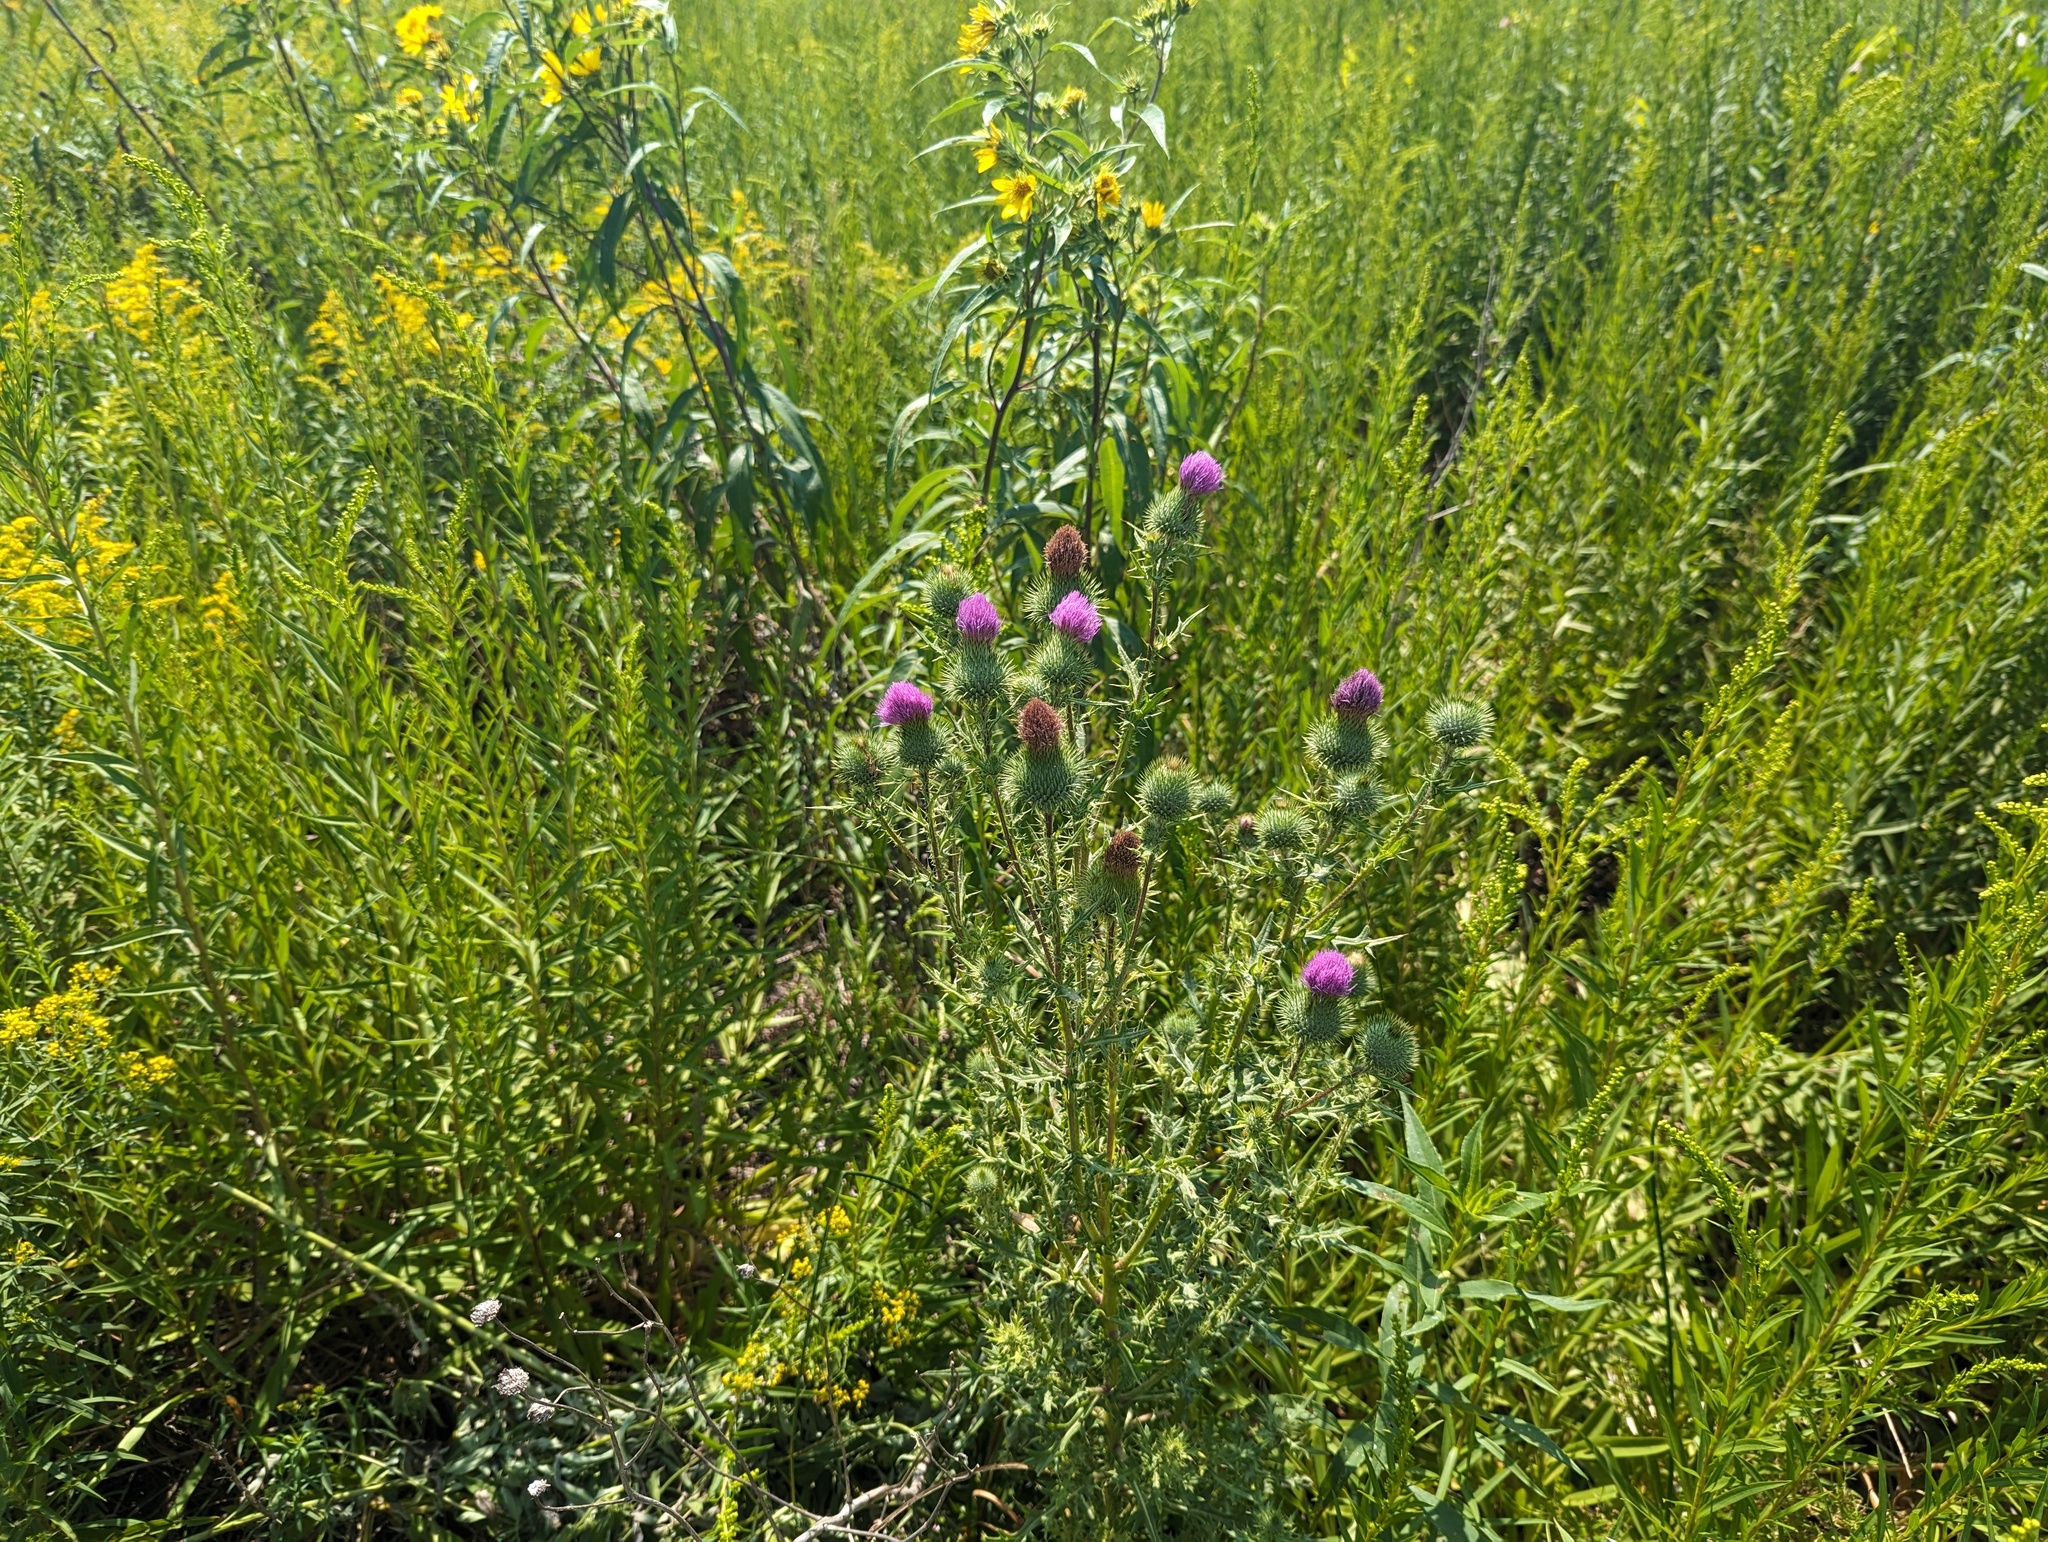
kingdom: Plantae
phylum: Tracheophyta
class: Magnoliopsida
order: Asterales
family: Asteraceae
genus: Cirsium
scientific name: Cirsium vulgare
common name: Bull thistle
